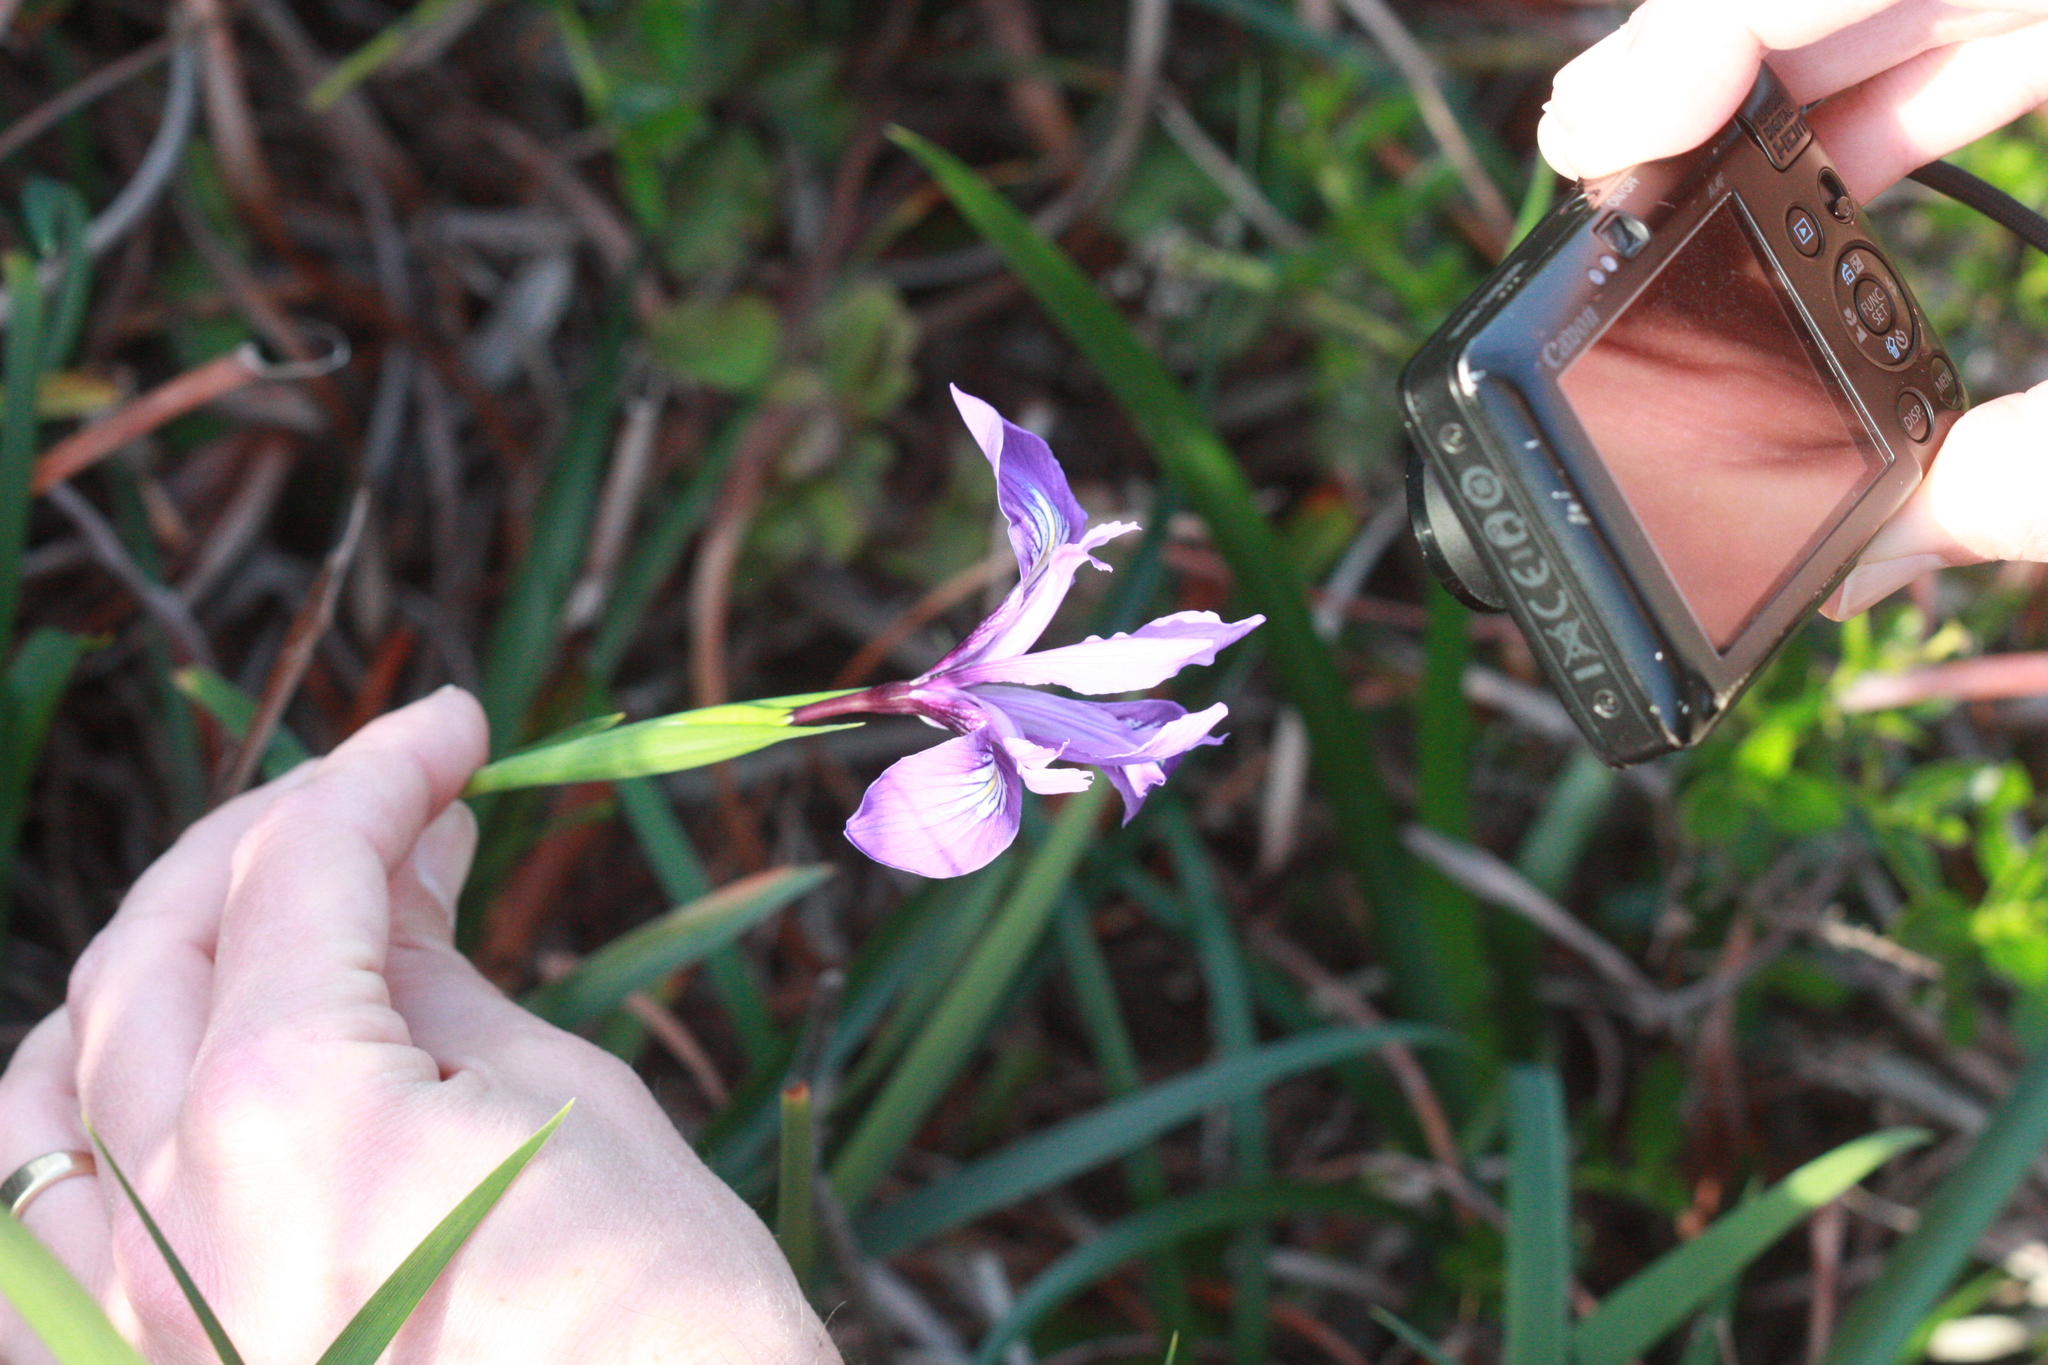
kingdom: Plantae
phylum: Tracheophyta
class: Liliopsida
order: Asparagales
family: Iridaceae
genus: Iris
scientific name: Iris douglasiana
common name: Marin iris
